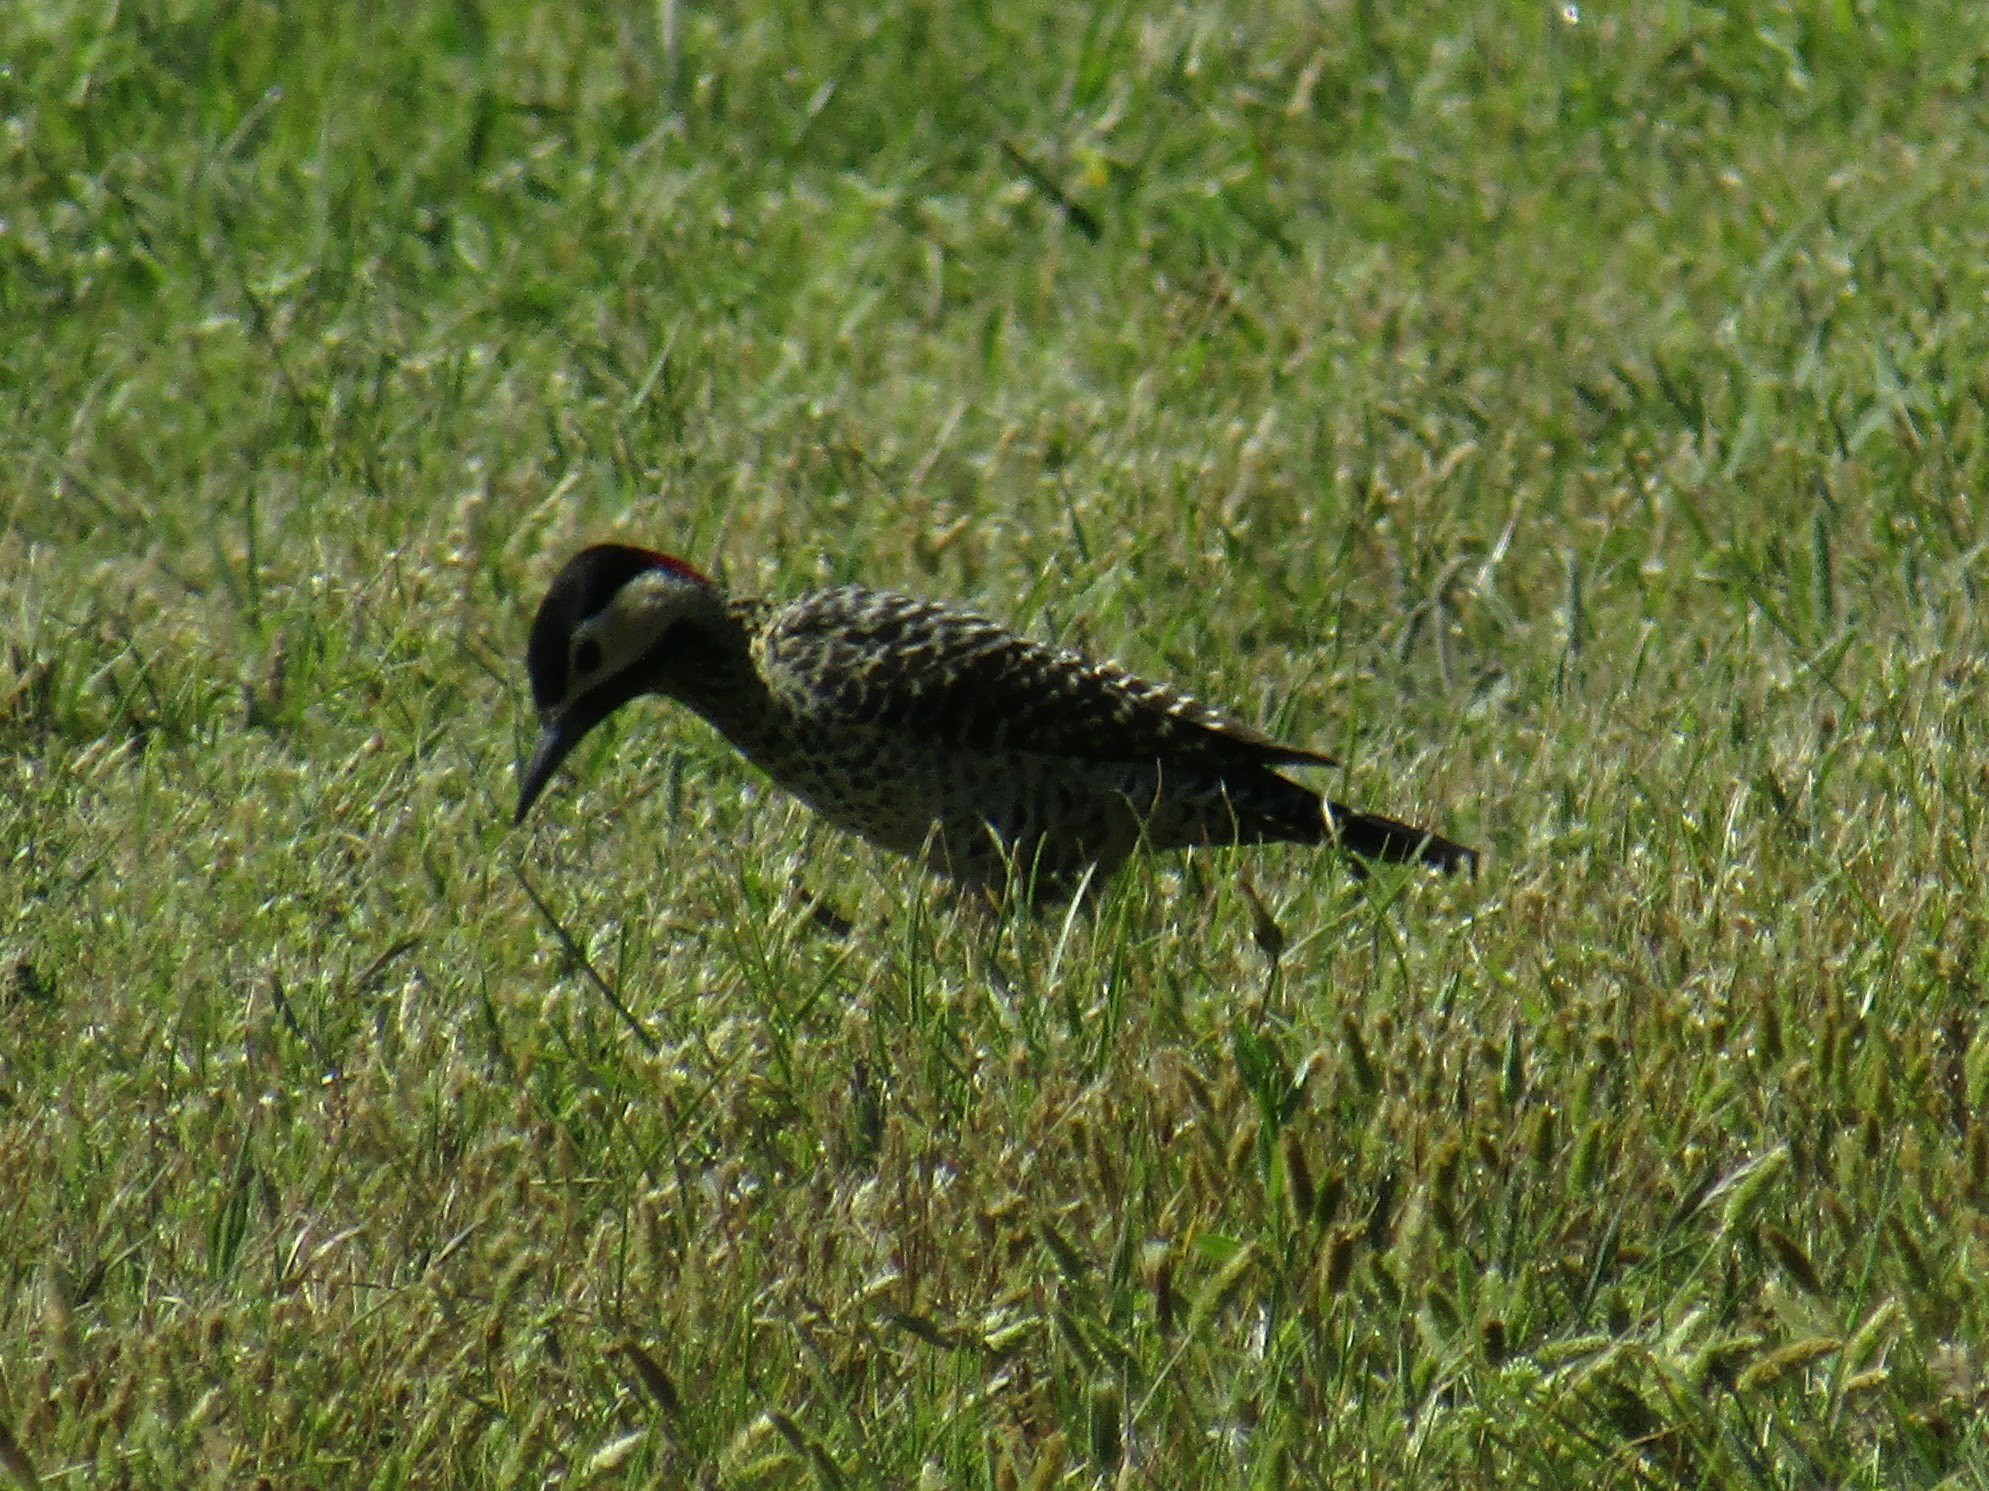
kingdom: Animalia
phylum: Chordata
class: Aves
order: Piciformes
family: Picidae
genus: Colaptes
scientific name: Colaptes melanochloros
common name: Green-barred woodpecker
